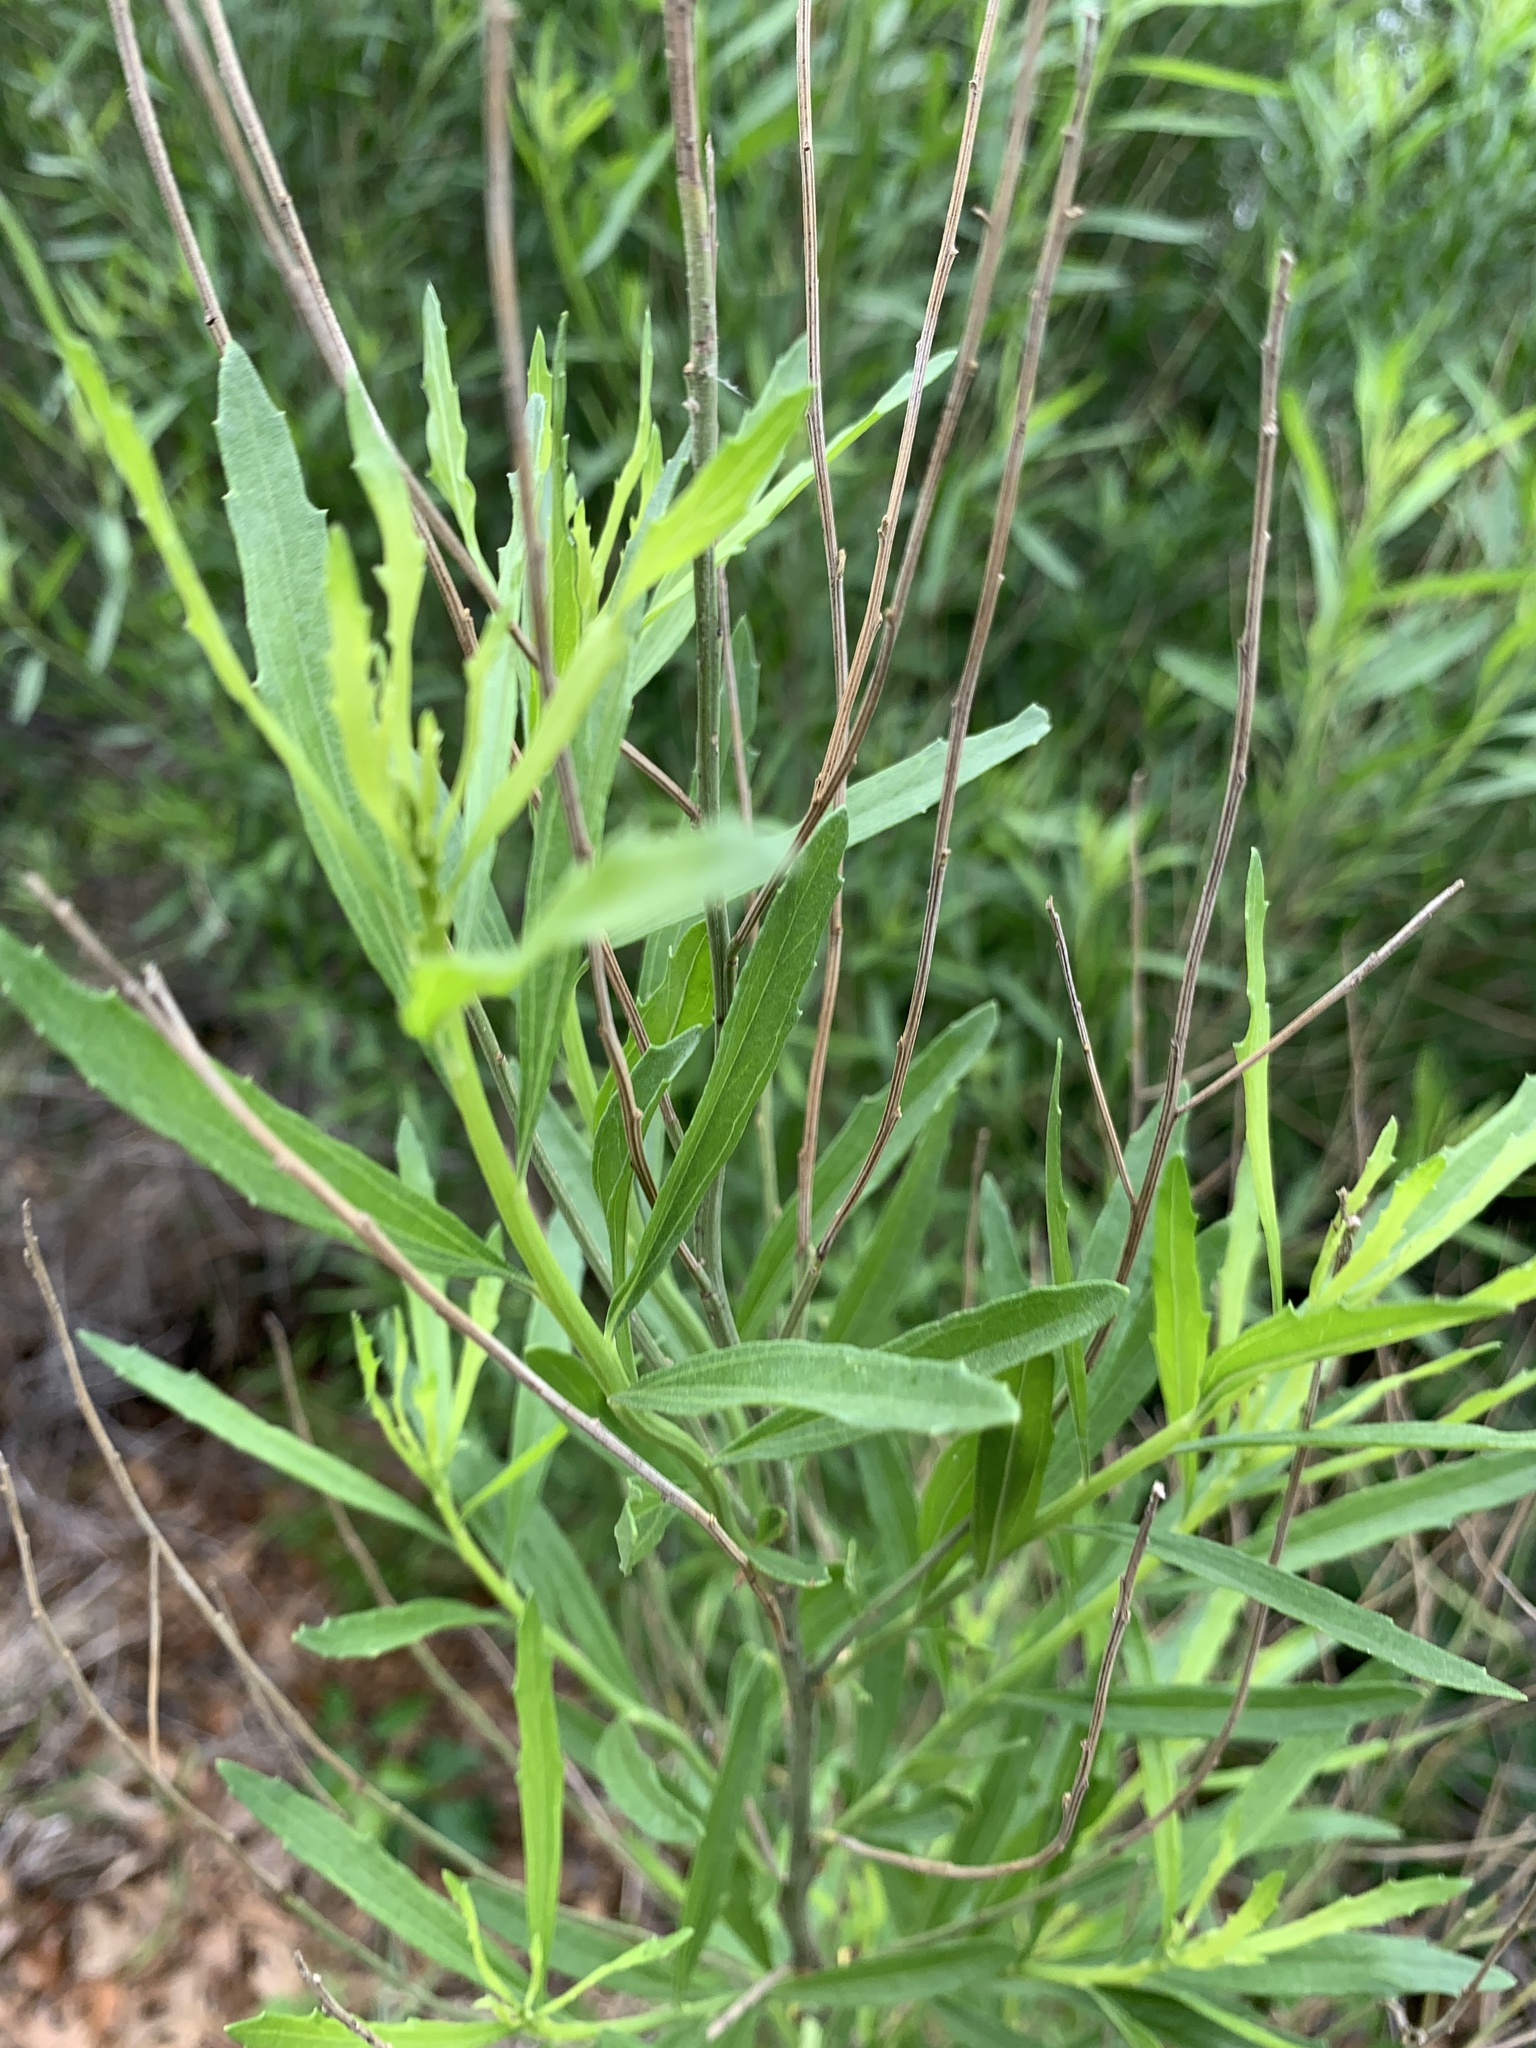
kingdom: Plantae
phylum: Tracheophyta
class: Magnoliopsida
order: Asterales
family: Asteraceae
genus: Baccharis
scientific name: Baccharis neglecta
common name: Roosevelt-weed
